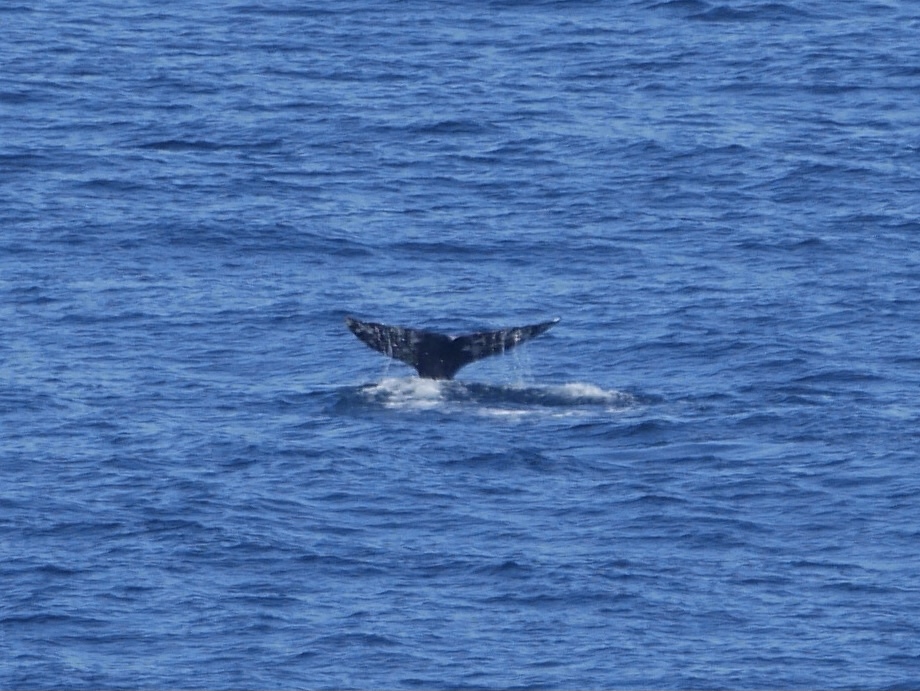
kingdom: Animalia
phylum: Chordata
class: Mammalia
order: Cetacea
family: Eschrichtiidae
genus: Eschrichtius
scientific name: Eschrichtius robustus
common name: Gray whale
